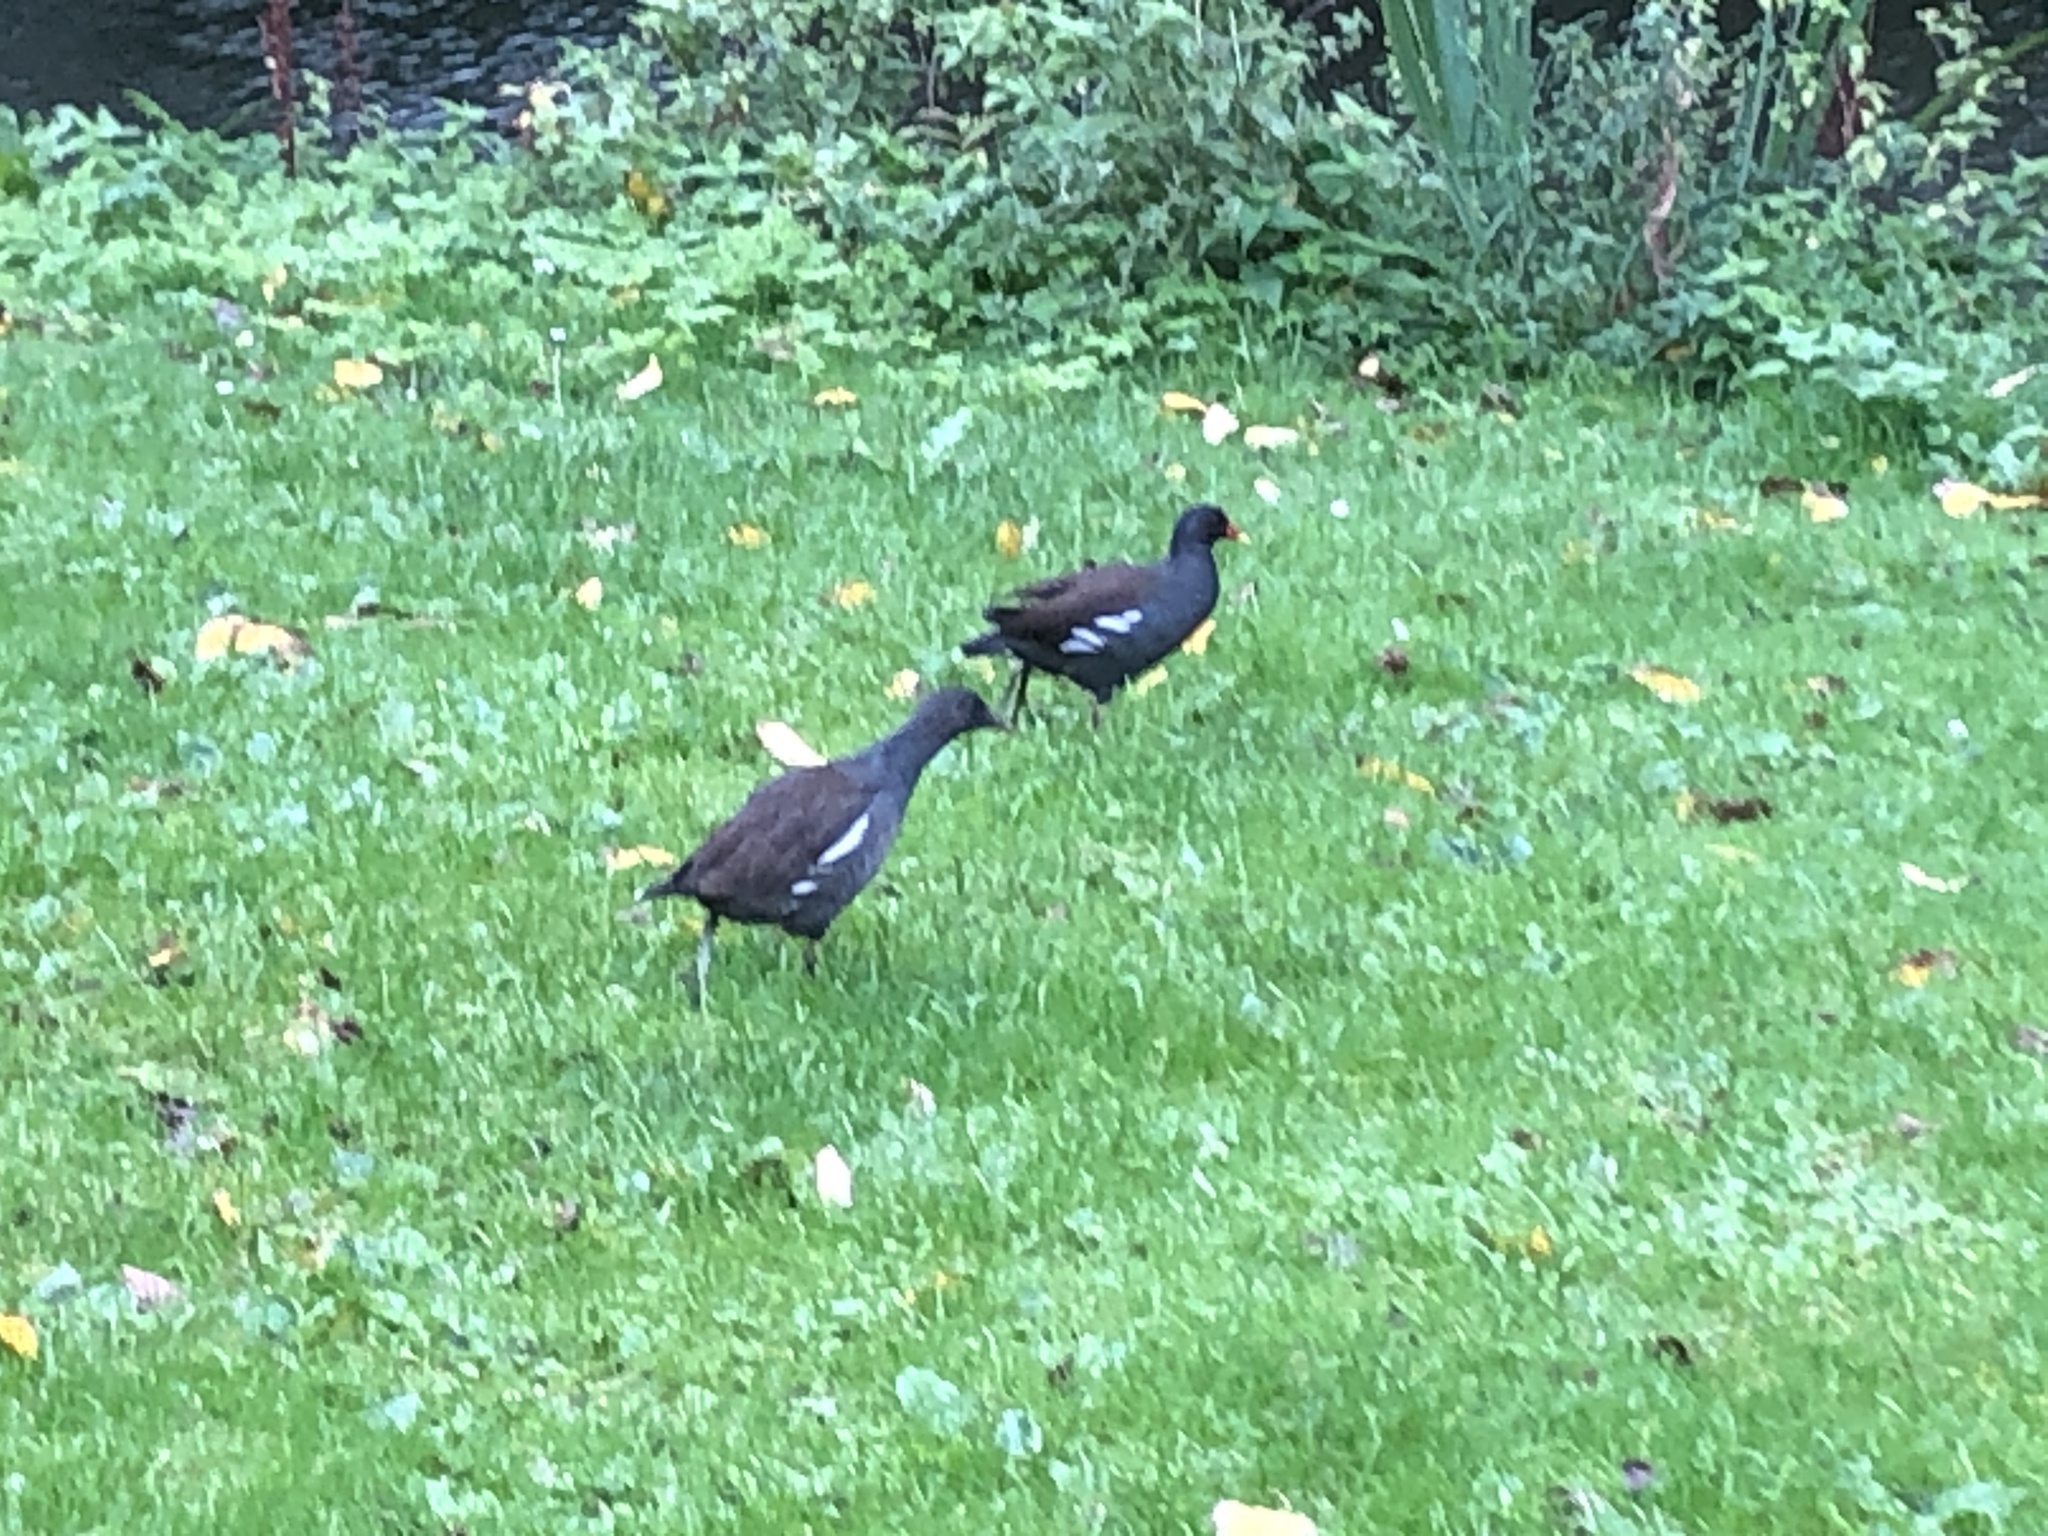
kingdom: Animalia
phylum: Chordata
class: Aves
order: Gruiformes
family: Rallidae
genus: Gallinula
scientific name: Gallinula chloropus
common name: Common moorhen
